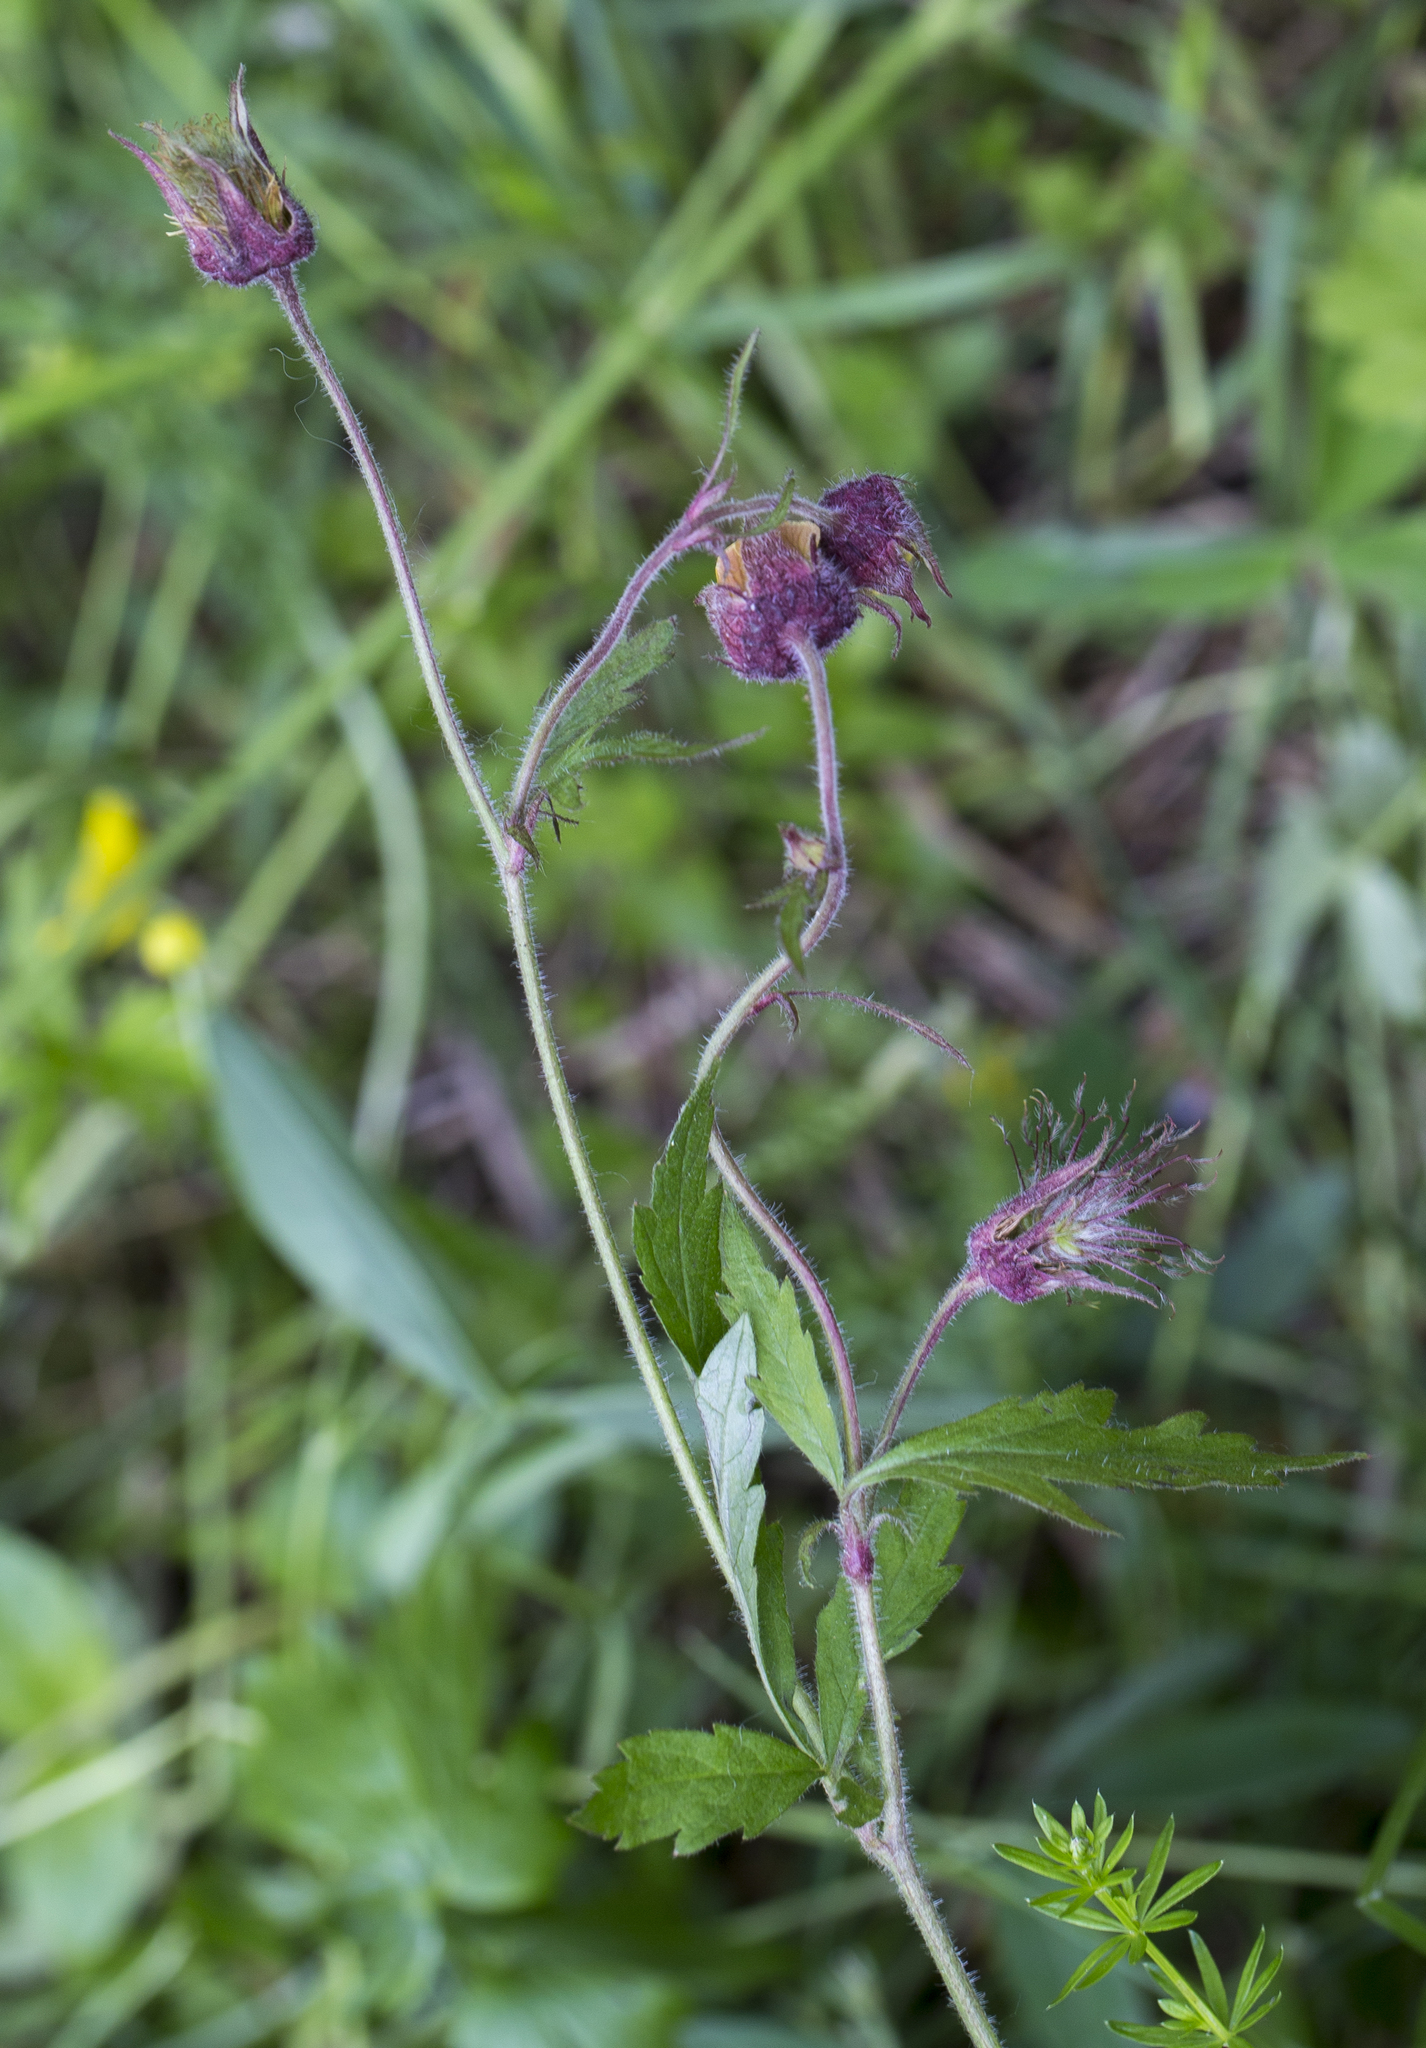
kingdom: Plantae
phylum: Tracheophyta
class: Magnoliopsida
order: Rosales
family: Rosaceae
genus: Geum
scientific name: Geum rivale
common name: Water avens
